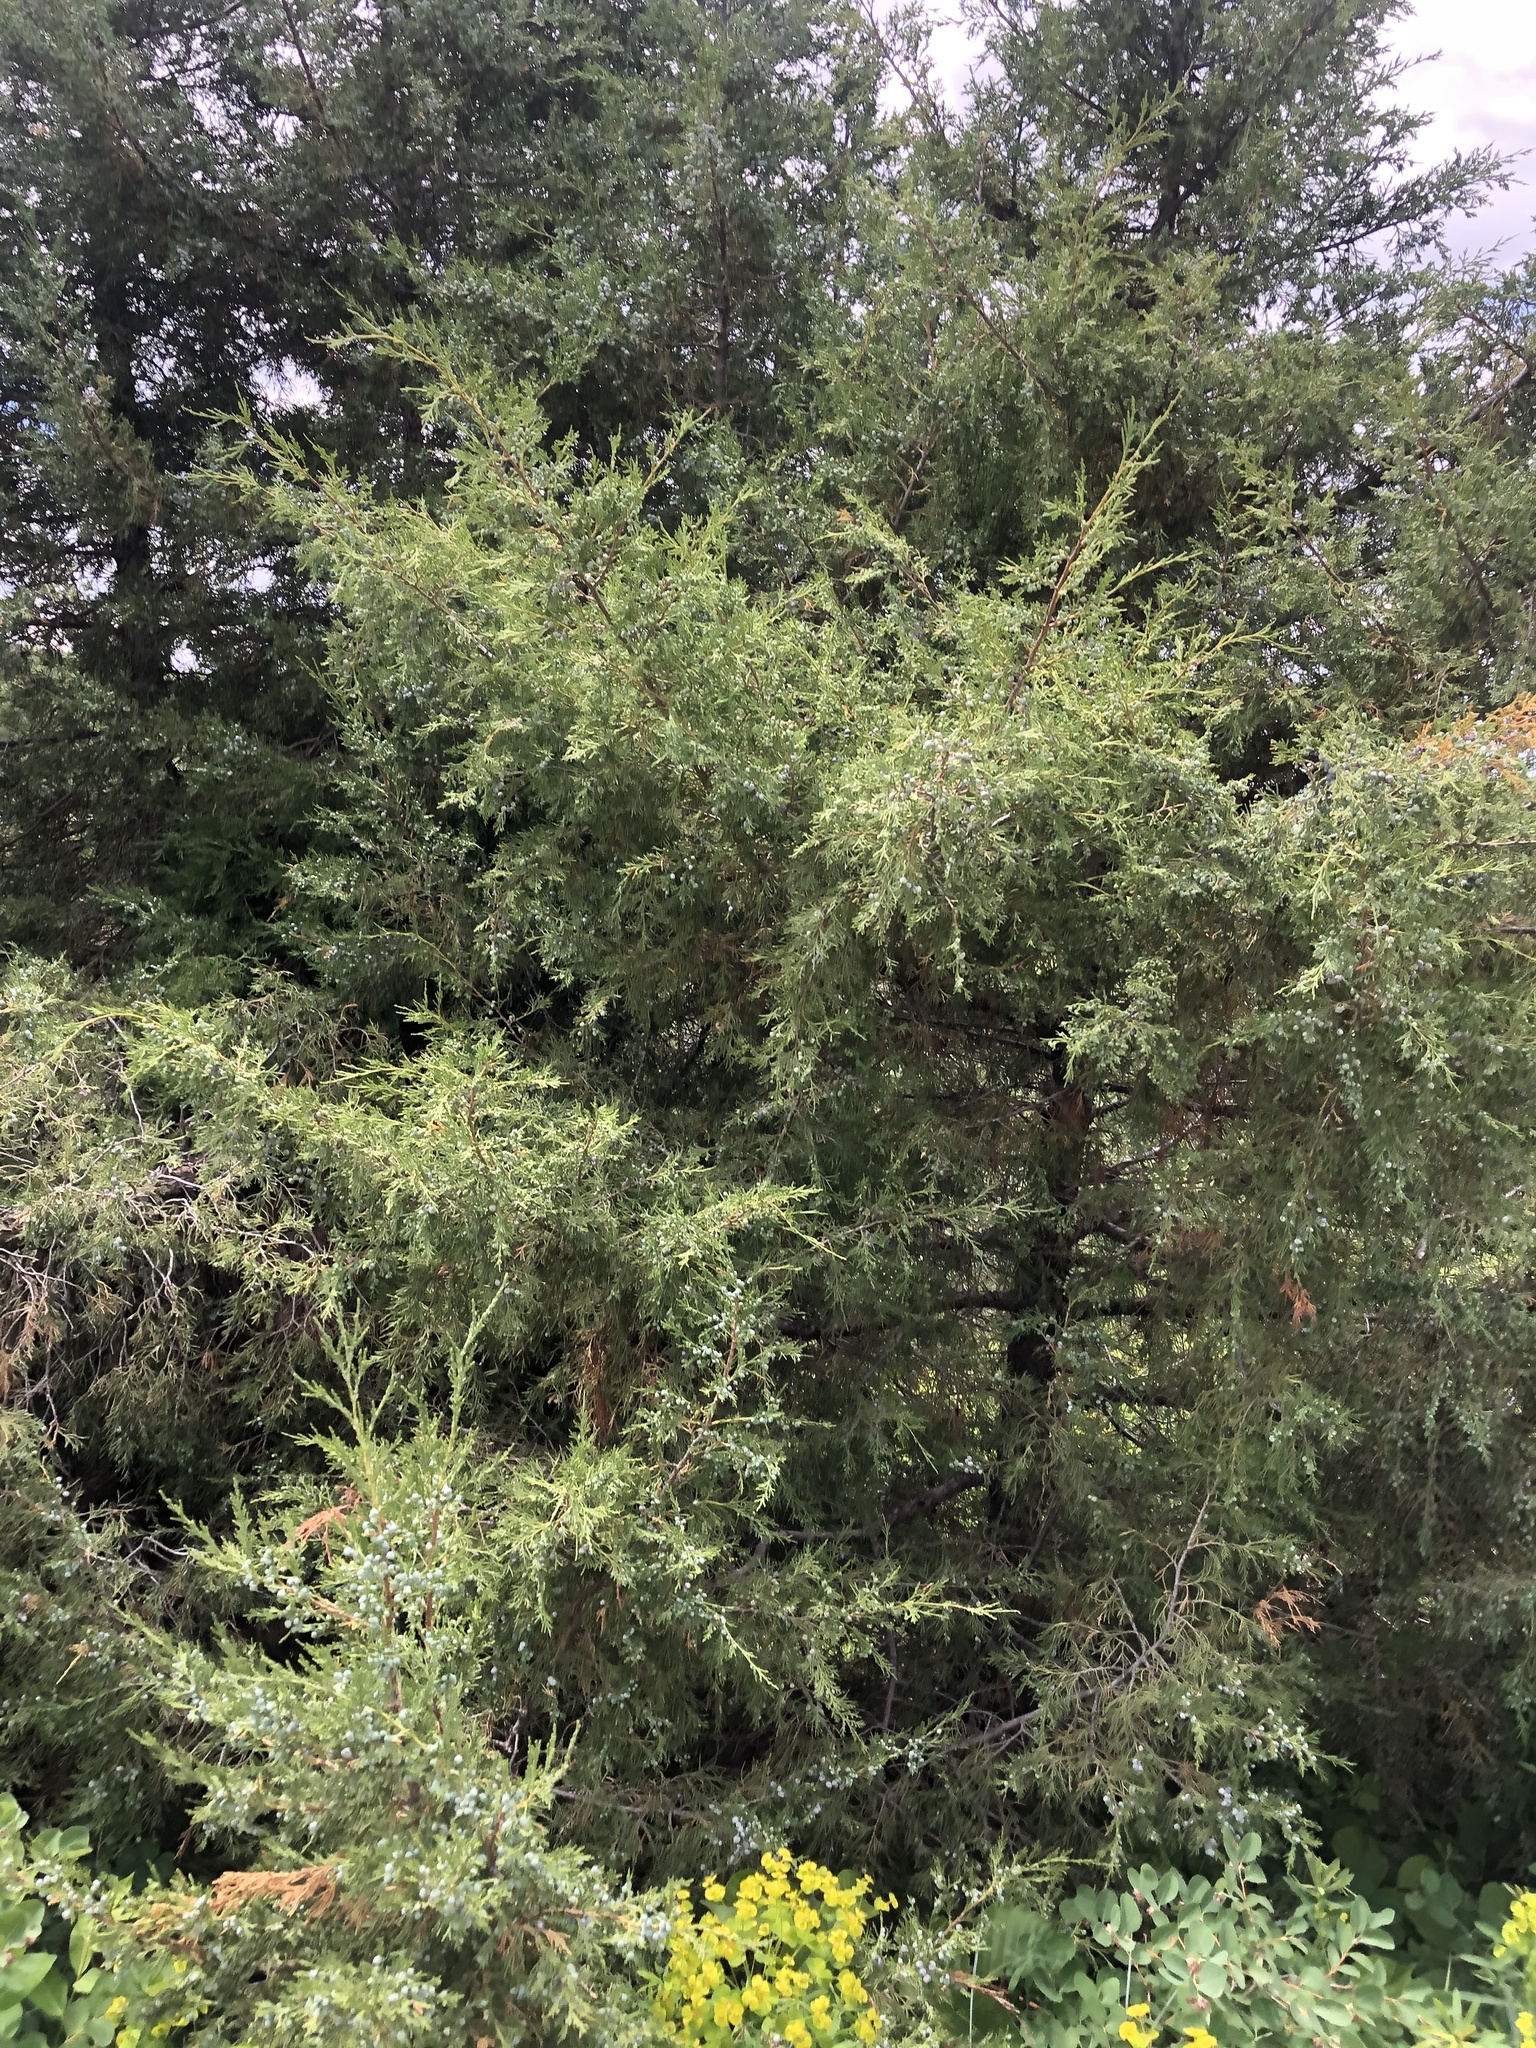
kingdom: Plantae
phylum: Tracheophyta
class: Pinopsida
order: Pinales
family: Cupressaceae
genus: Juniperus
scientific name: Juniperus scopulorum
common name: Rocky mountain juniper
